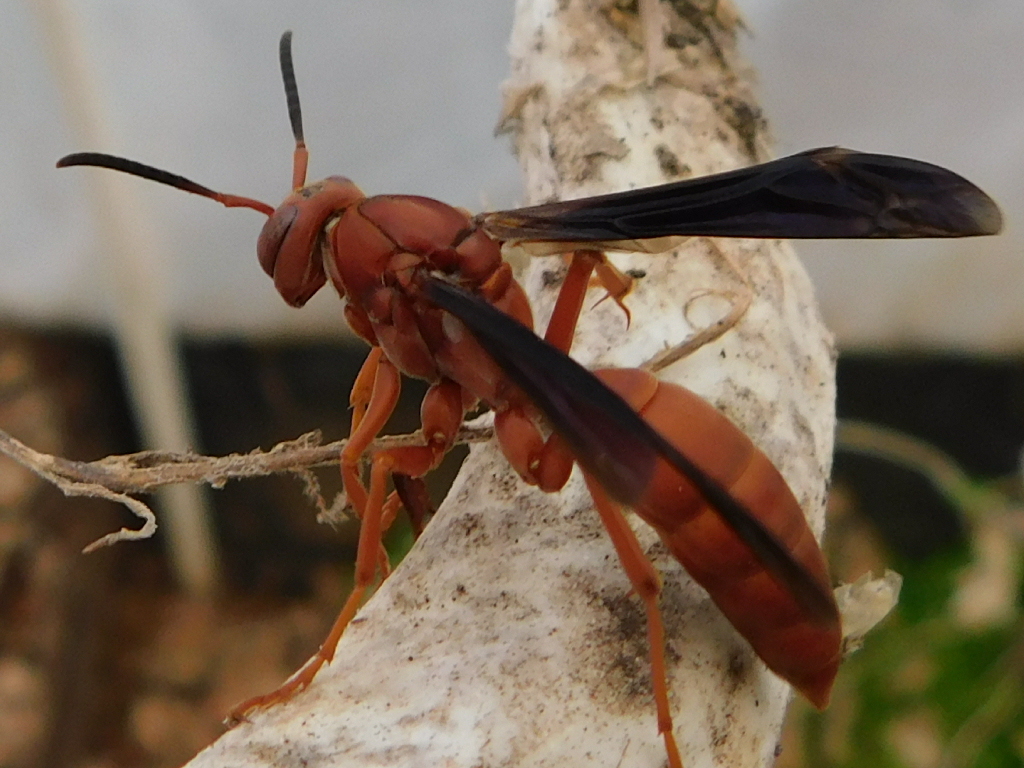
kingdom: Animalia
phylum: Arthropoda
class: Insecta
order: Hymenoptera
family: Eumenidae
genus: Polistes
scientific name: Polistes carolina
